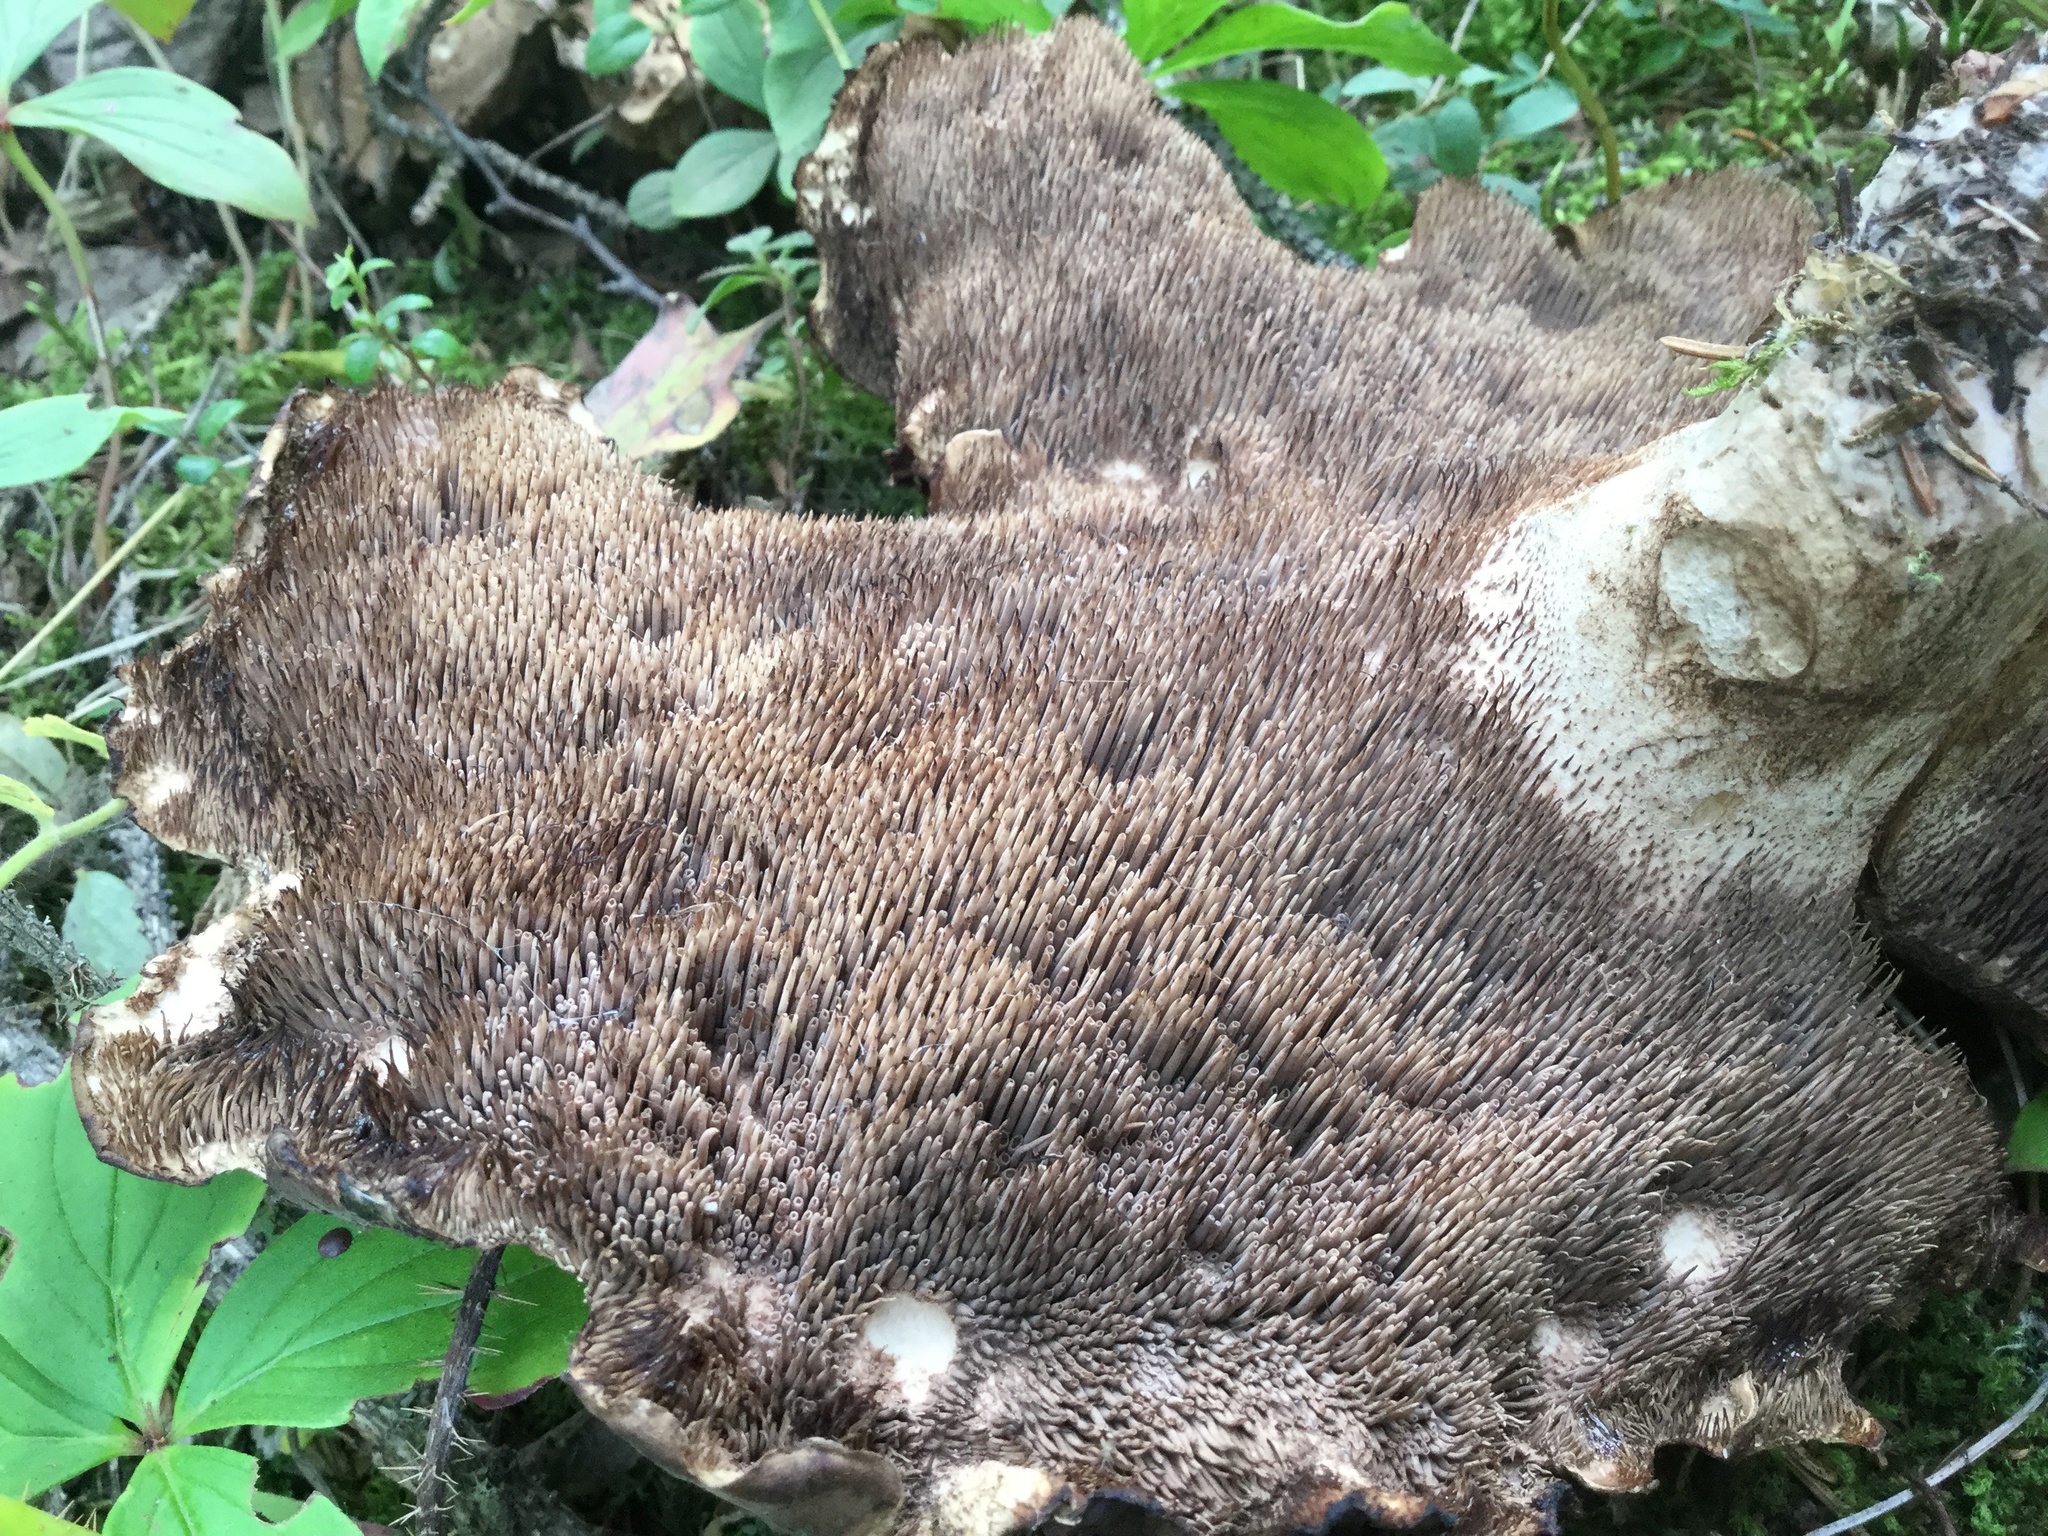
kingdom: Fungi
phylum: Basidiomycota
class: Agaricomycetes
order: Thelephorales
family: Bankeraceae
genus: Sarcodon
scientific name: Sarcodon imbricatus
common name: Shingled hedgehog
